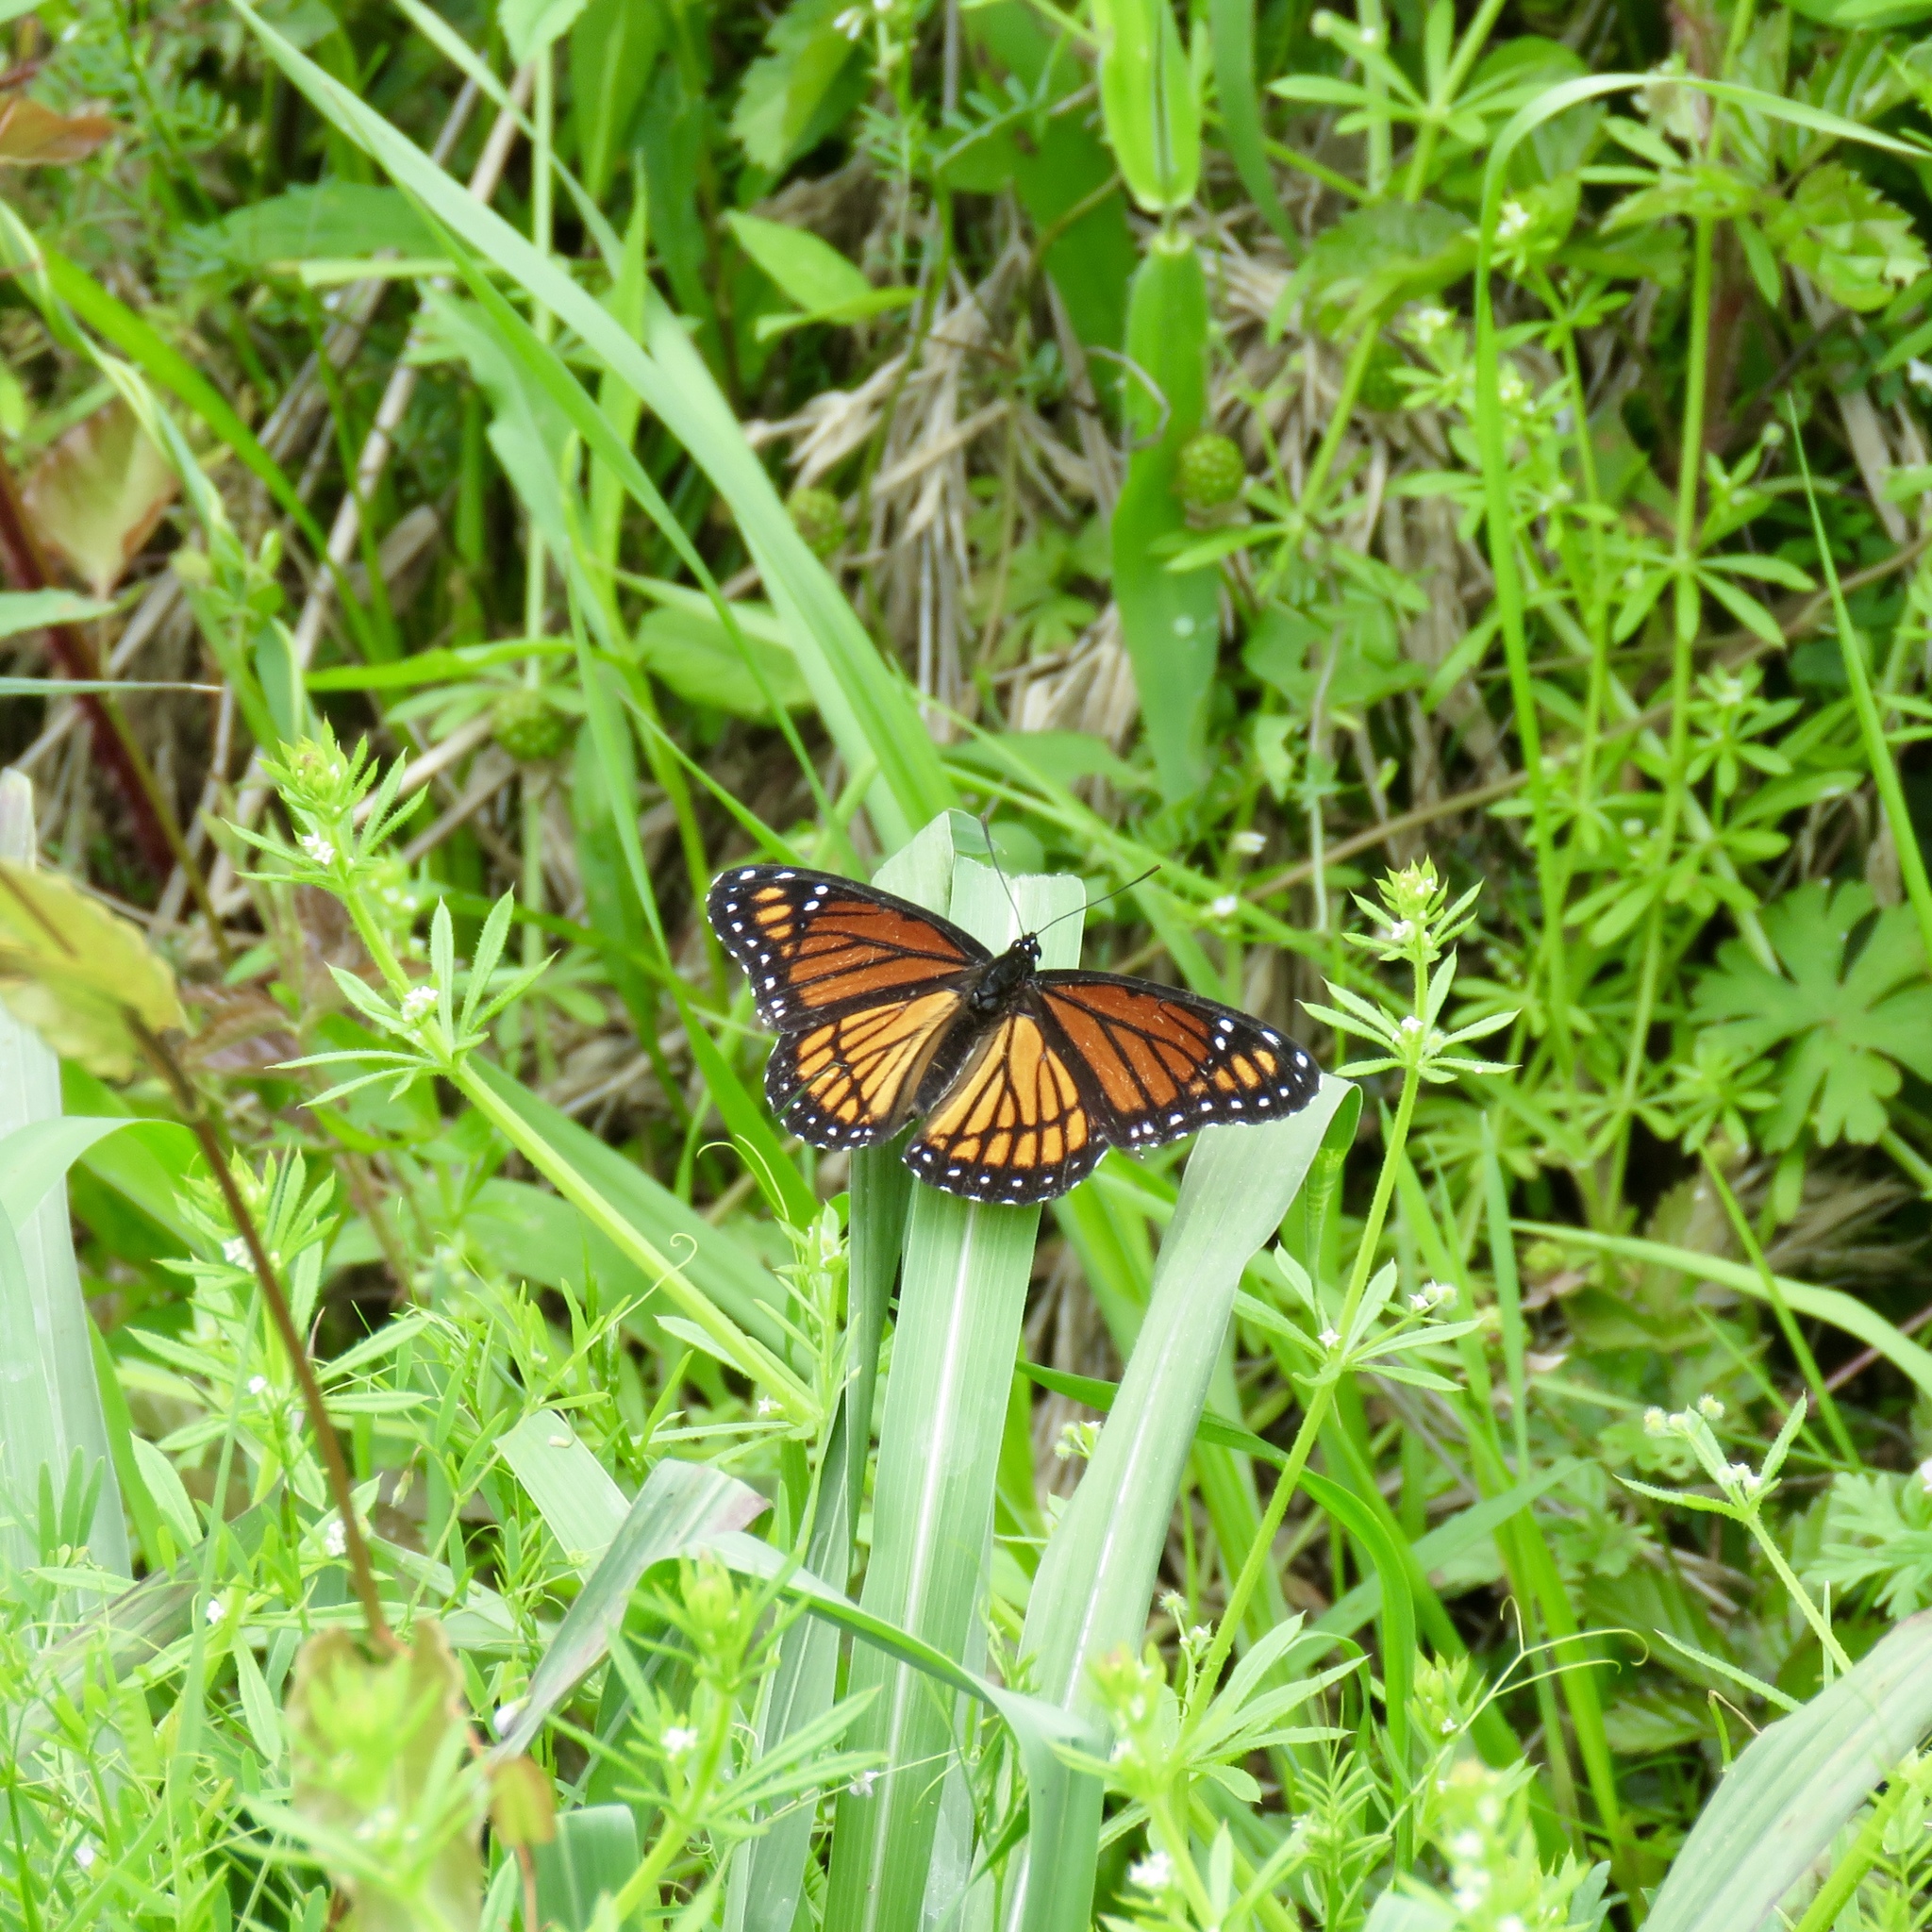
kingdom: Animalia
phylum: Arthropoda
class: Insecta
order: Lepidoptera
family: Nymphalidae
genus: Limenitis
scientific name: Limenitis archippus
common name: Viceroy
